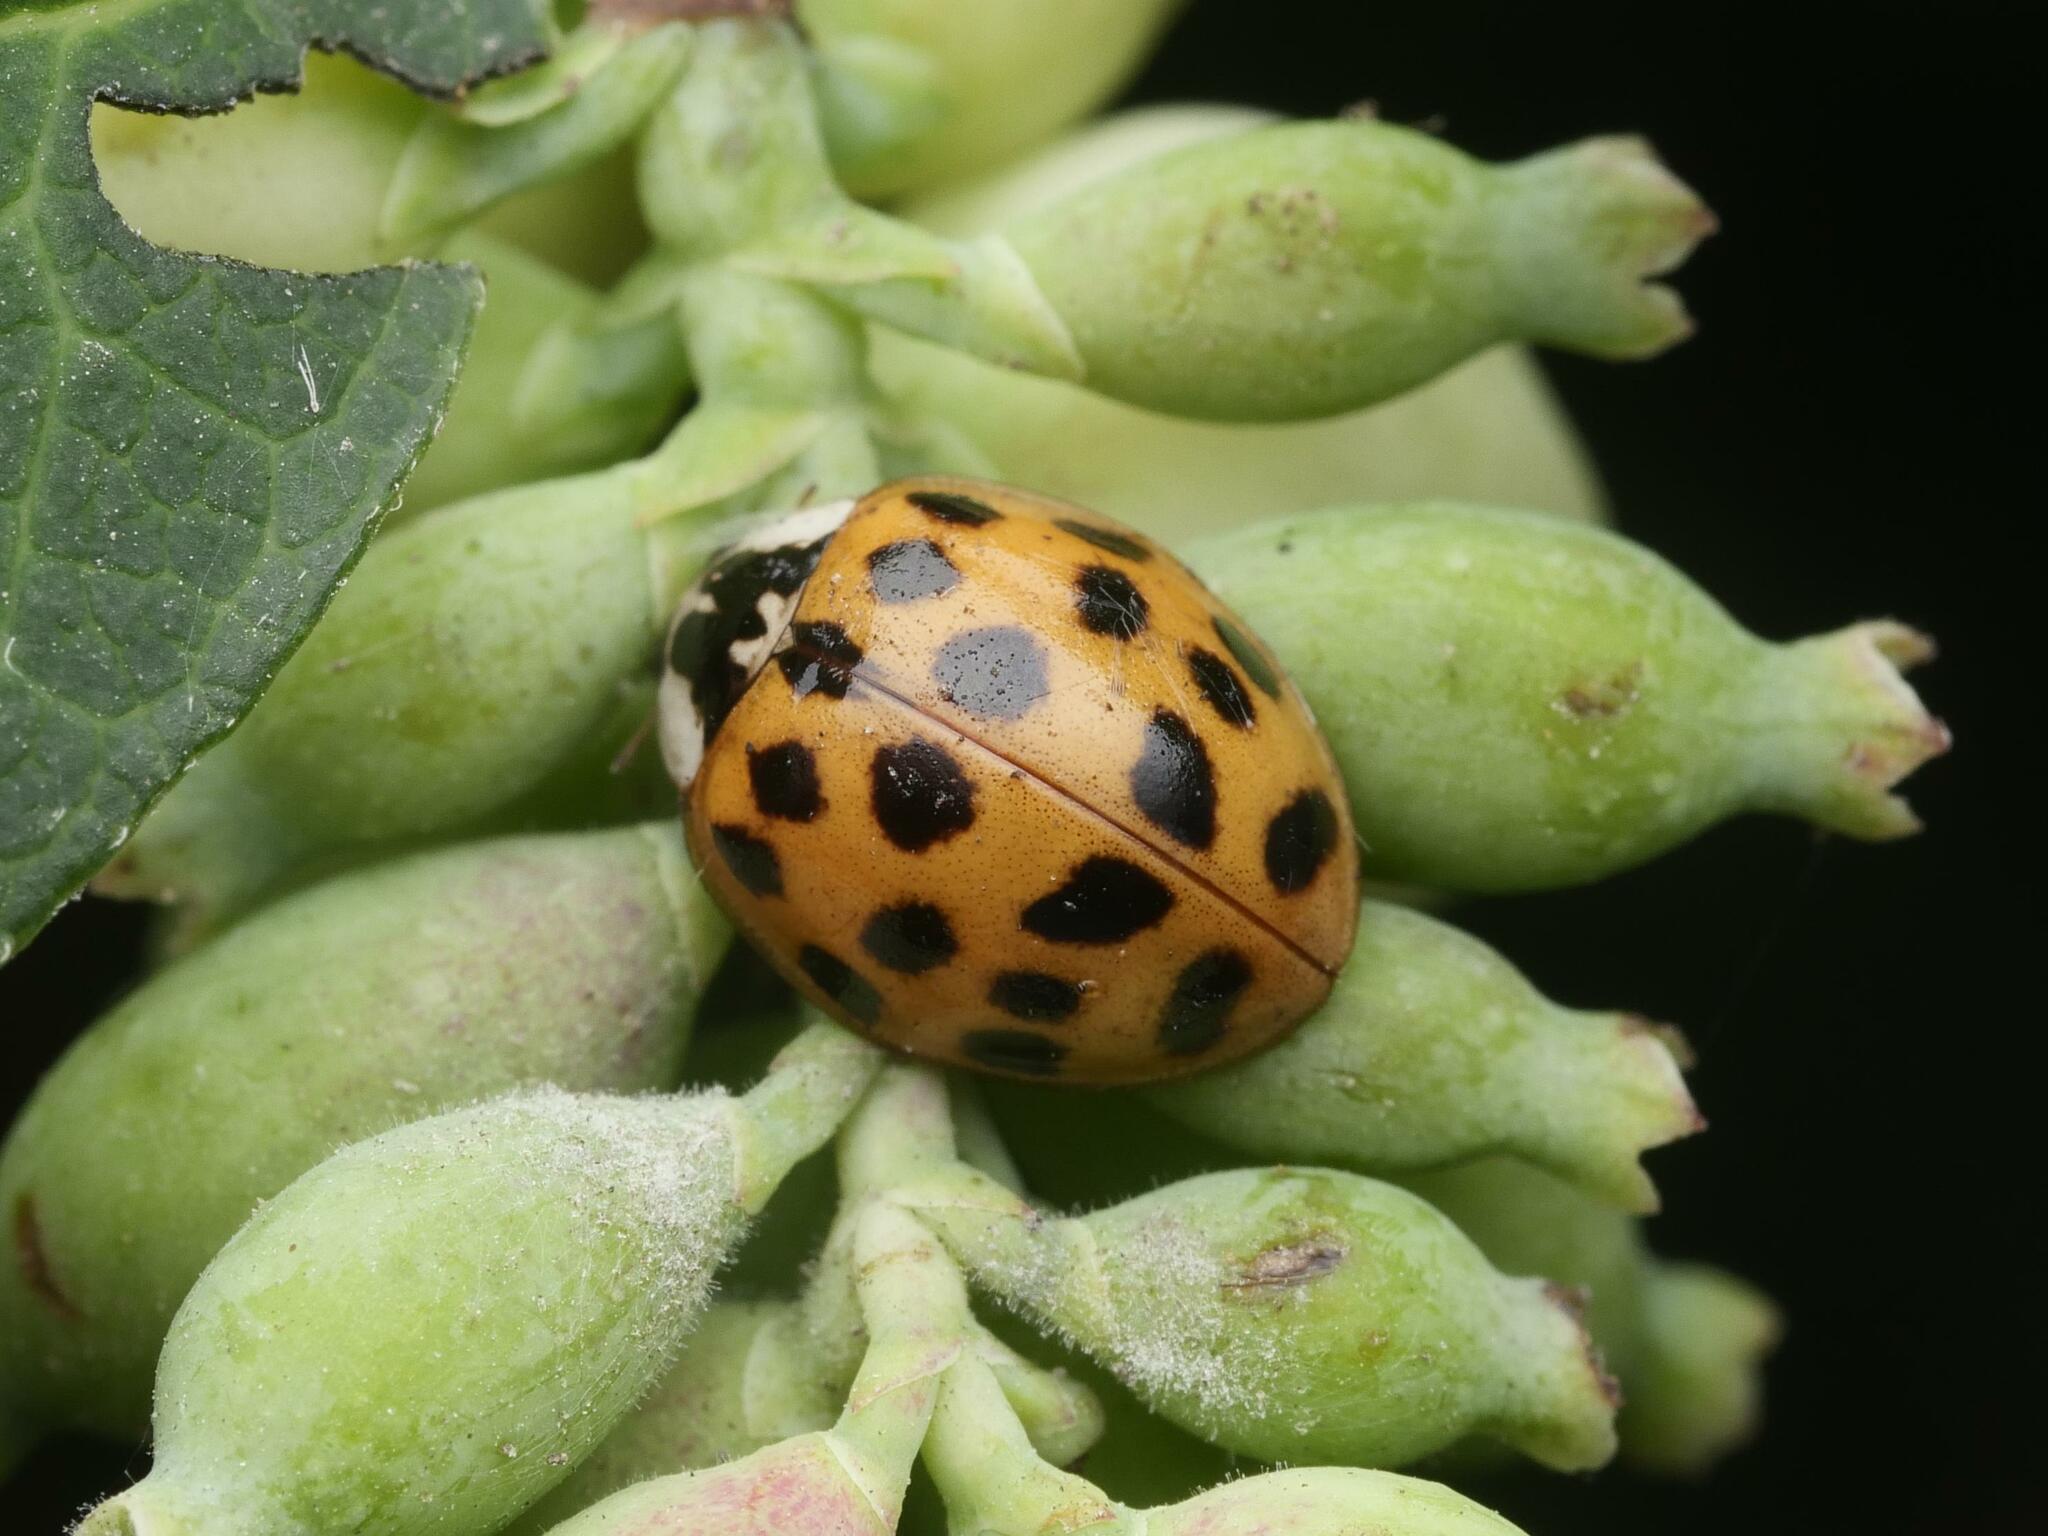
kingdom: Animalia
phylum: Arthropoda
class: Insecta
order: Coleoptera
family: Coccinellidae
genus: Harmonia
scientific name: Harmonia axyridis
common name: Harlequin ladybird
